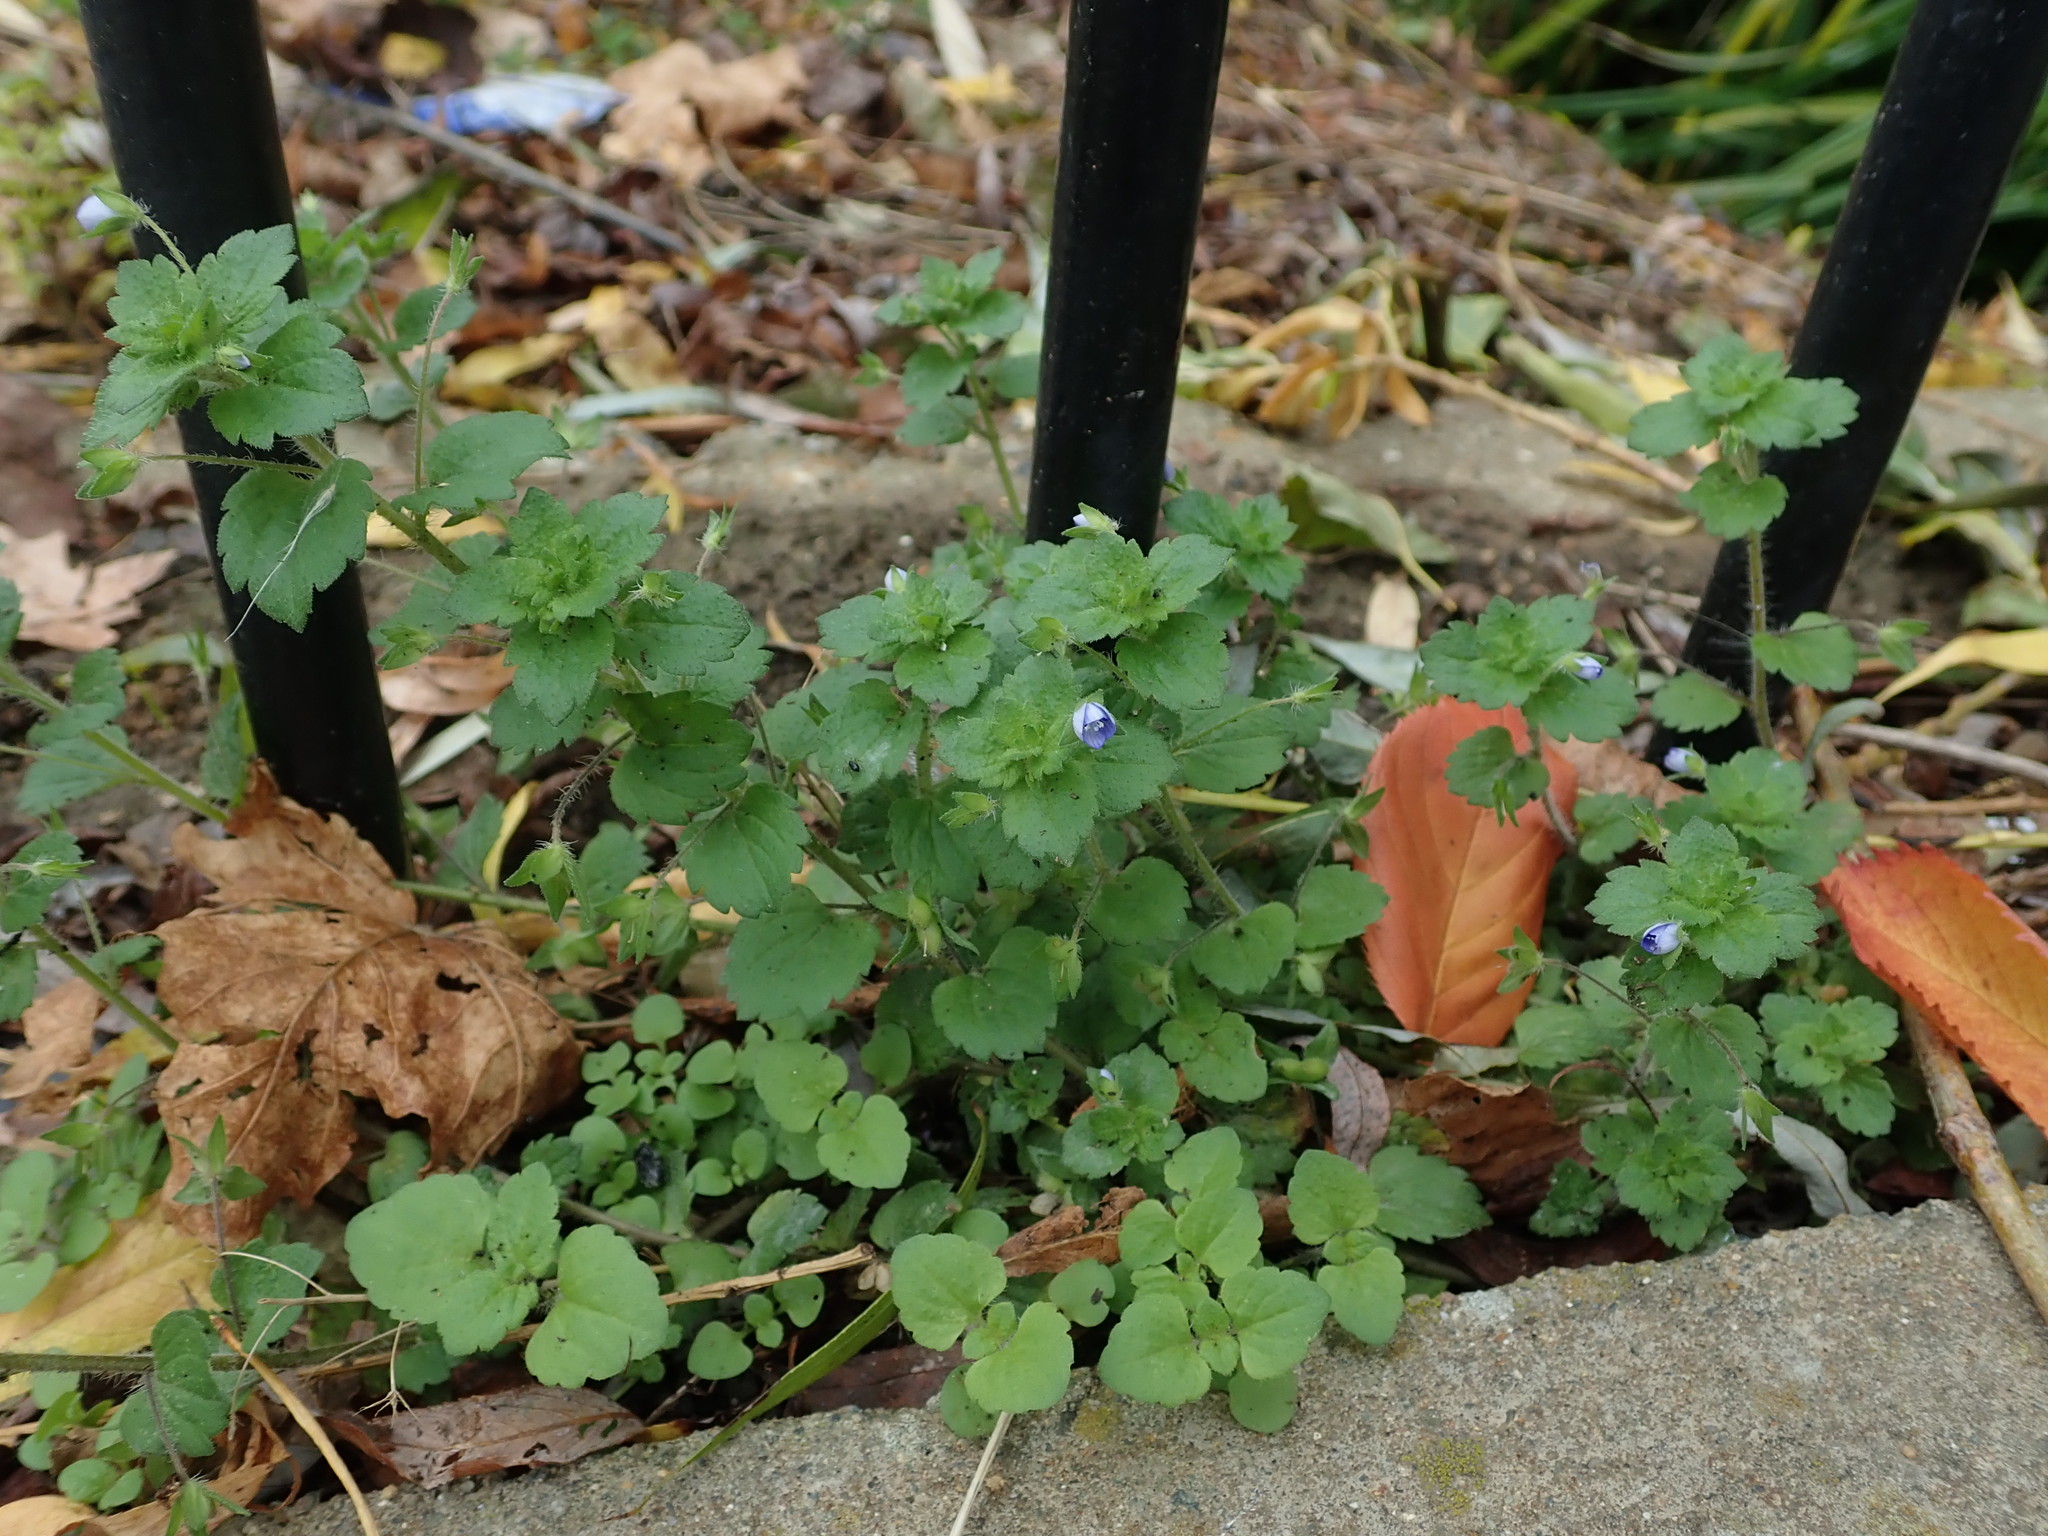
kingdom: Plantae
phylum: Tracheophyta
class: Magnoliopsida
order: Lamiales
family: Plantaginaceae
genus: Veronica
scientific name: Veronica persica
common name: Common field-speedwell
